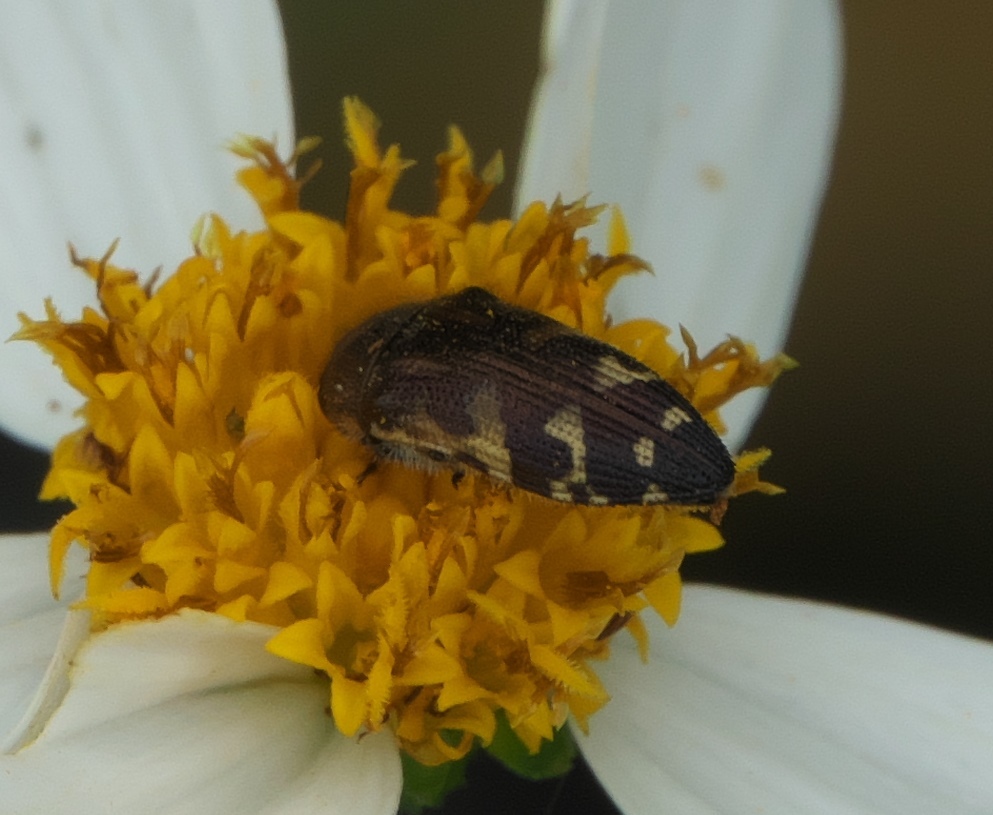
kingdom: Animalia
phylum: Arthropoda
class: Insecta
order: Coleoptera
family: Buprestidae
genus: Acmaeodera
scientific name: Acmaeodera pulchella
